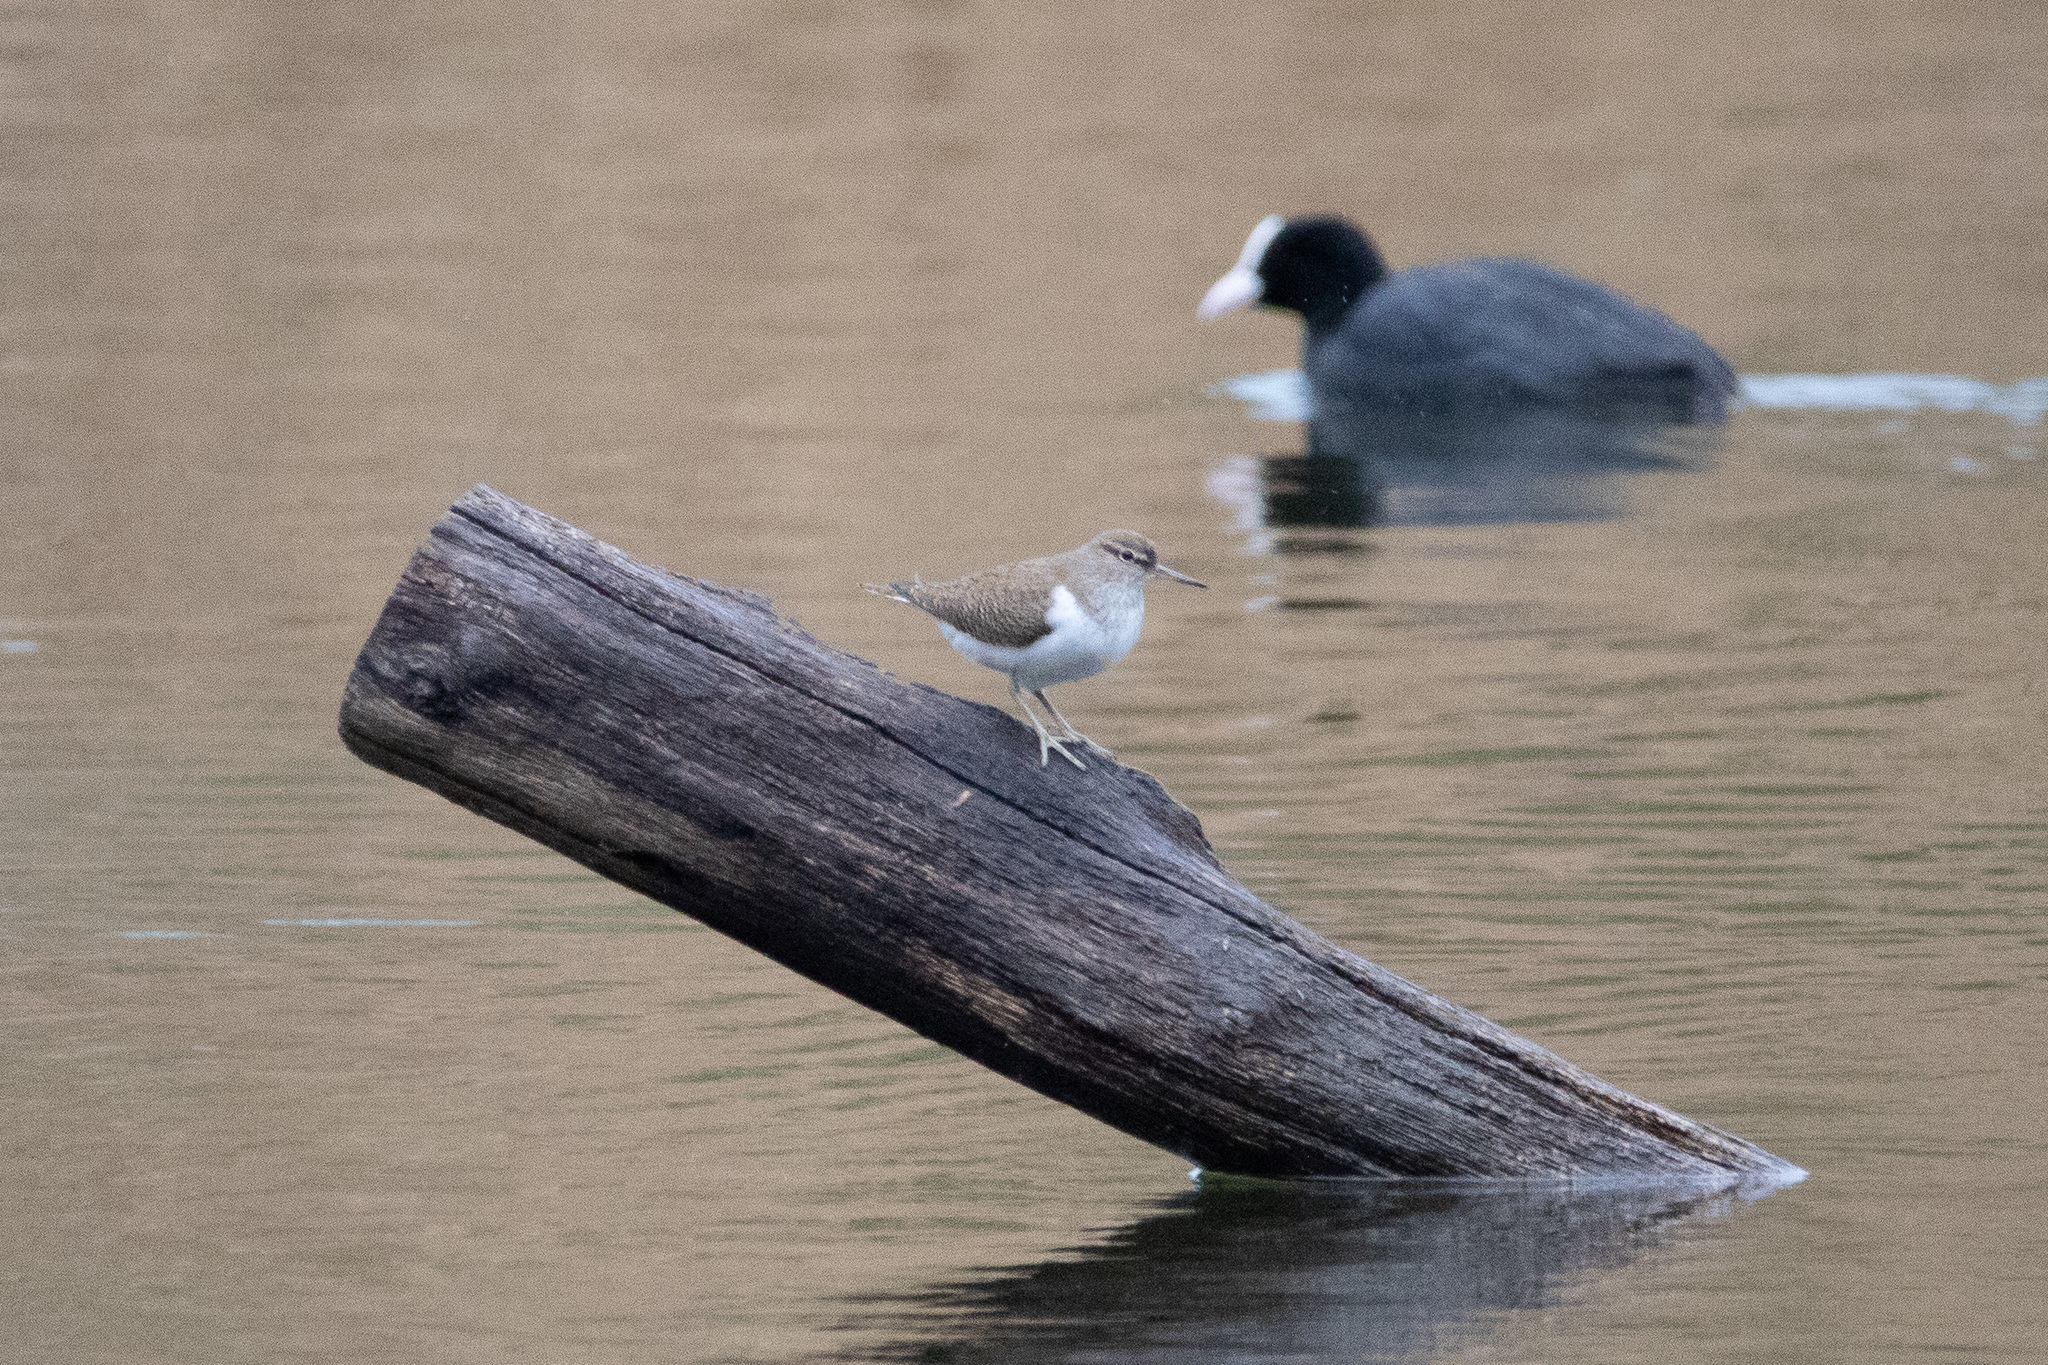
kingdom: Animalia
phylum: Chordata
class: Aves
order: Charadriiformes
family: Scolopacidae
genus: Actitis
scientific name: Actitis hypoleucos
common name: Common sandpiper
